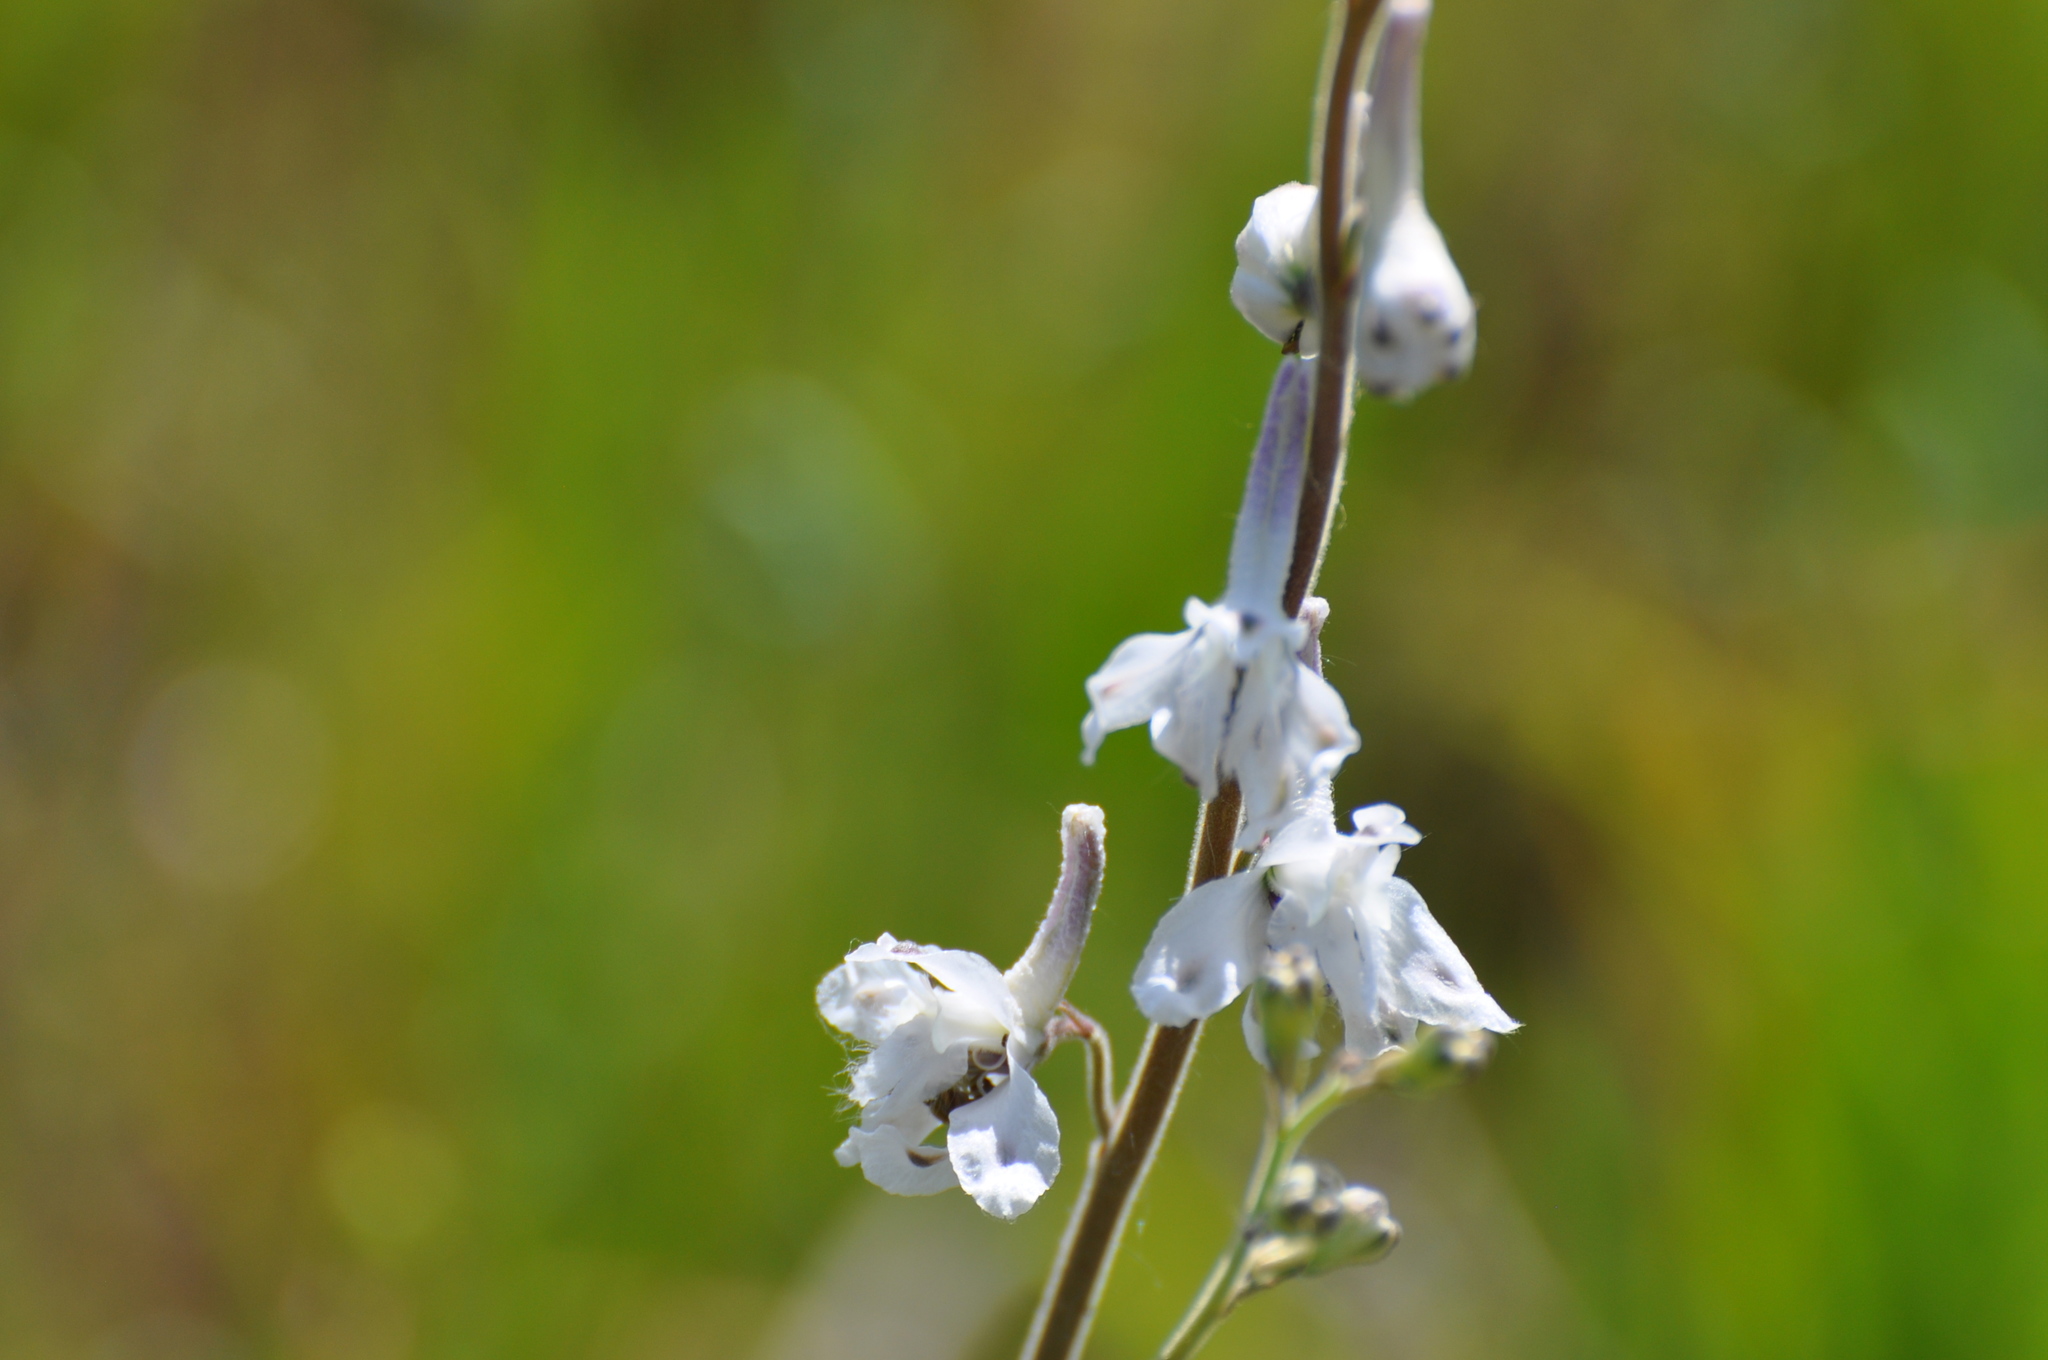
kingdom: Plantae
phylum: Tracheophyta
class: Magnoliopsida
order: Ranunculales
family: Ranunculaceae
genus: Delphinium
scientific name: Delphinium carolinianum
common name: Carolina larkspur
